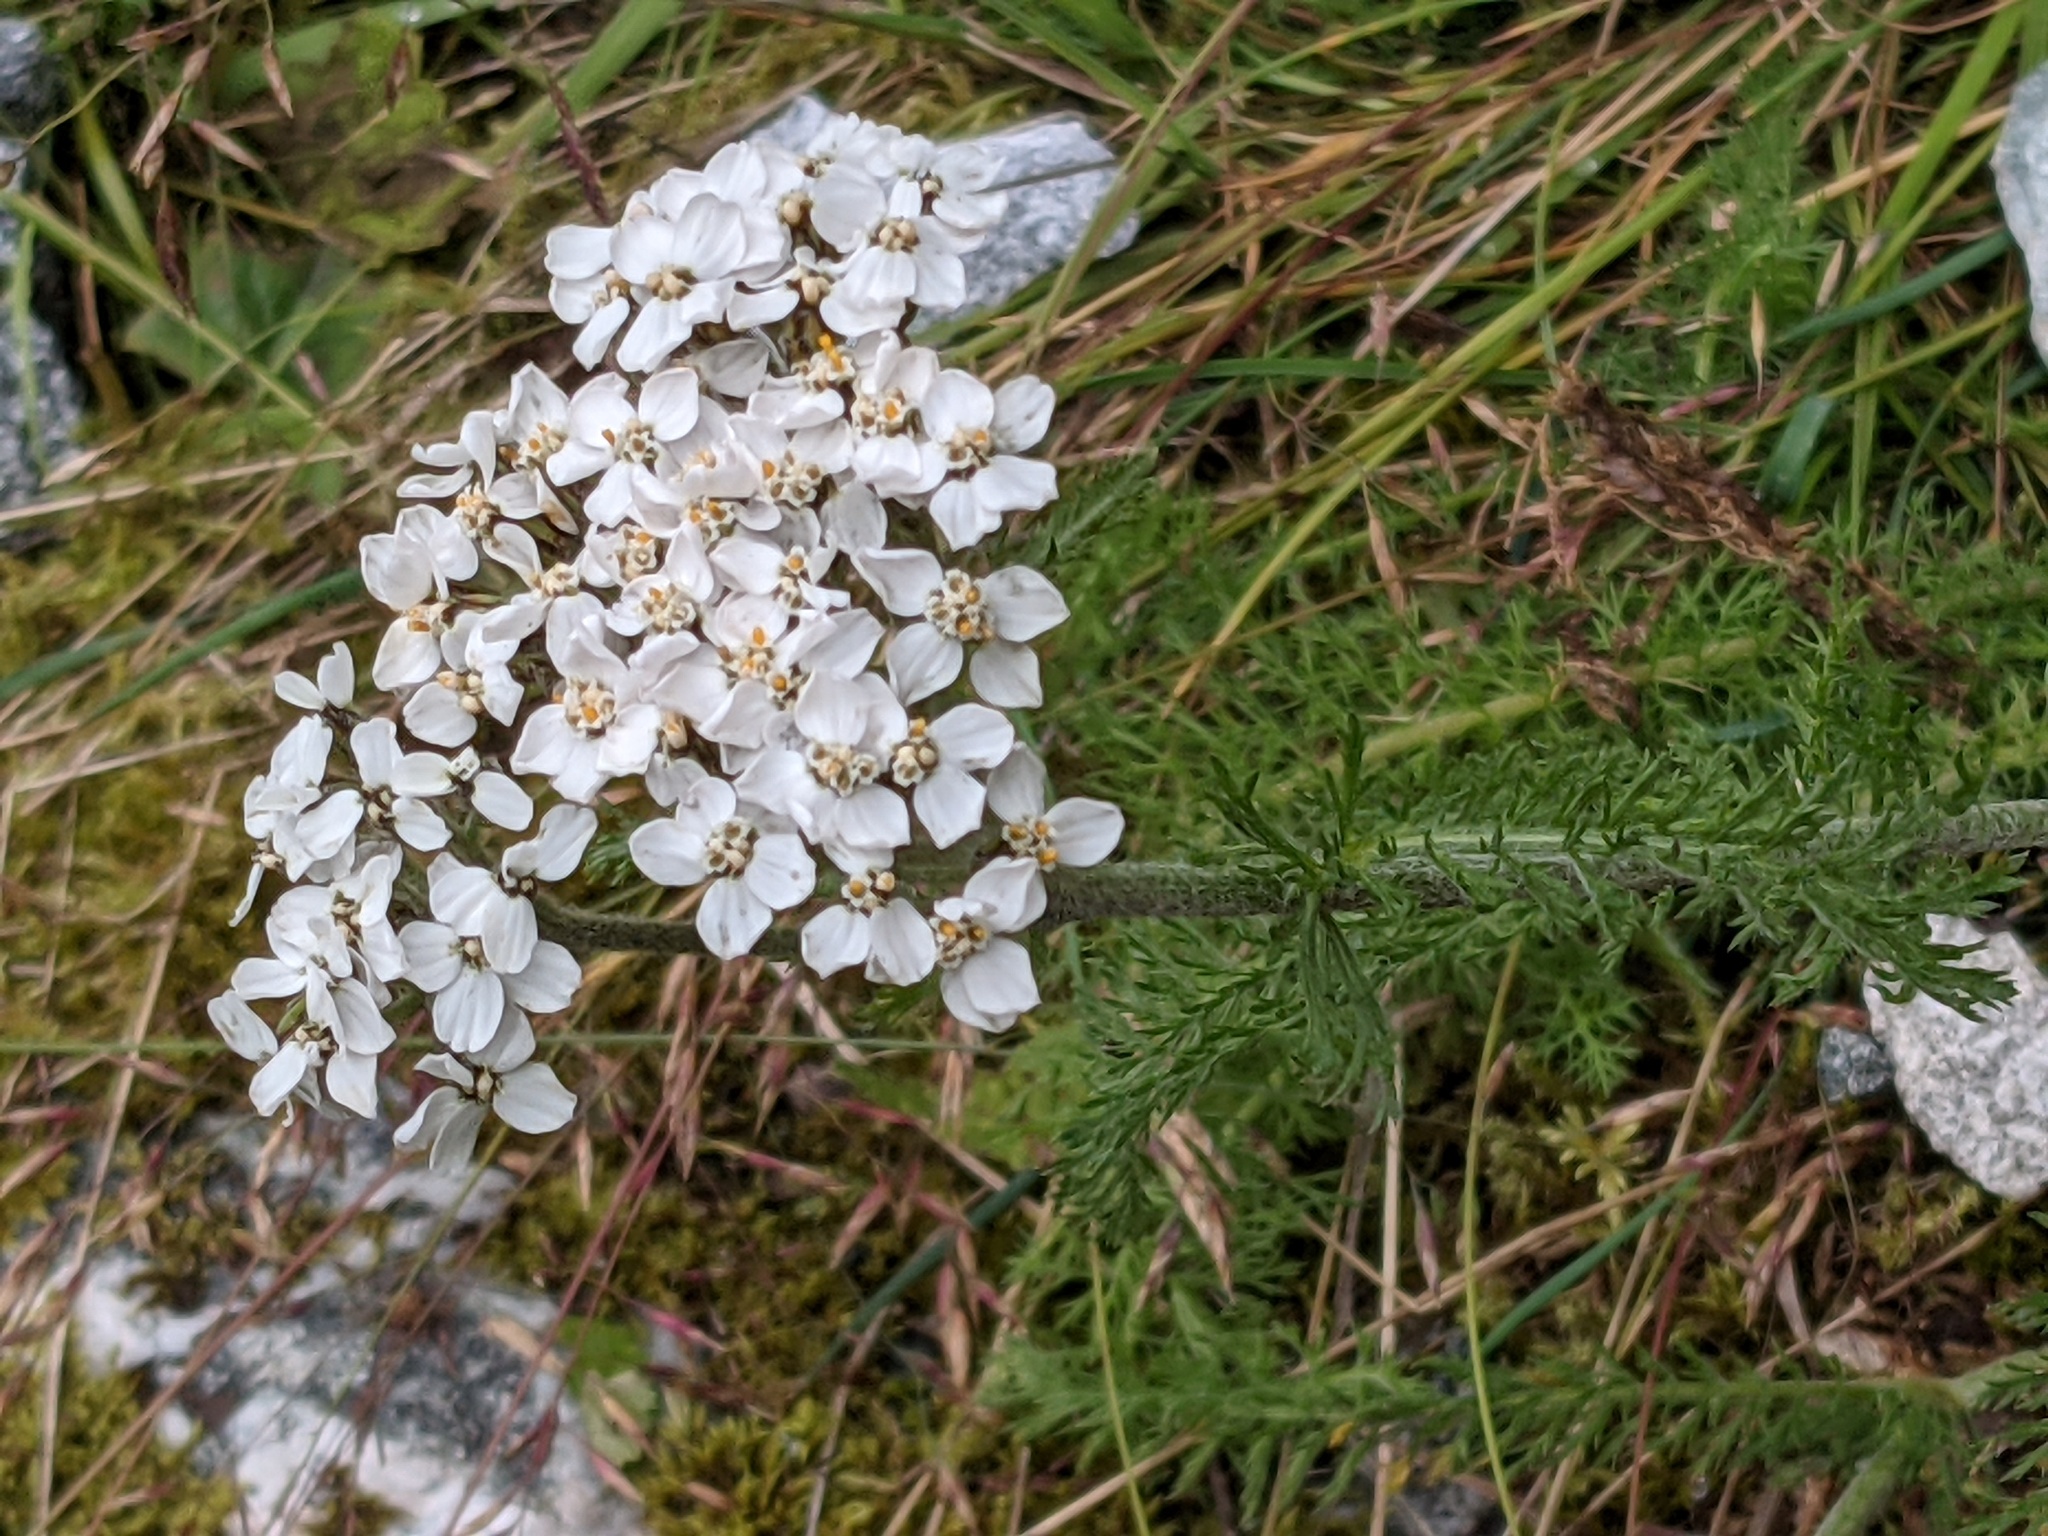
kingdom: Plantae
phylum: Tracheophyta
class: Magnoliopsida
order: Asterales
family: Asteraceae
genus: Achillea
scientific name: Achillea millefolium
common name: Yarrow
